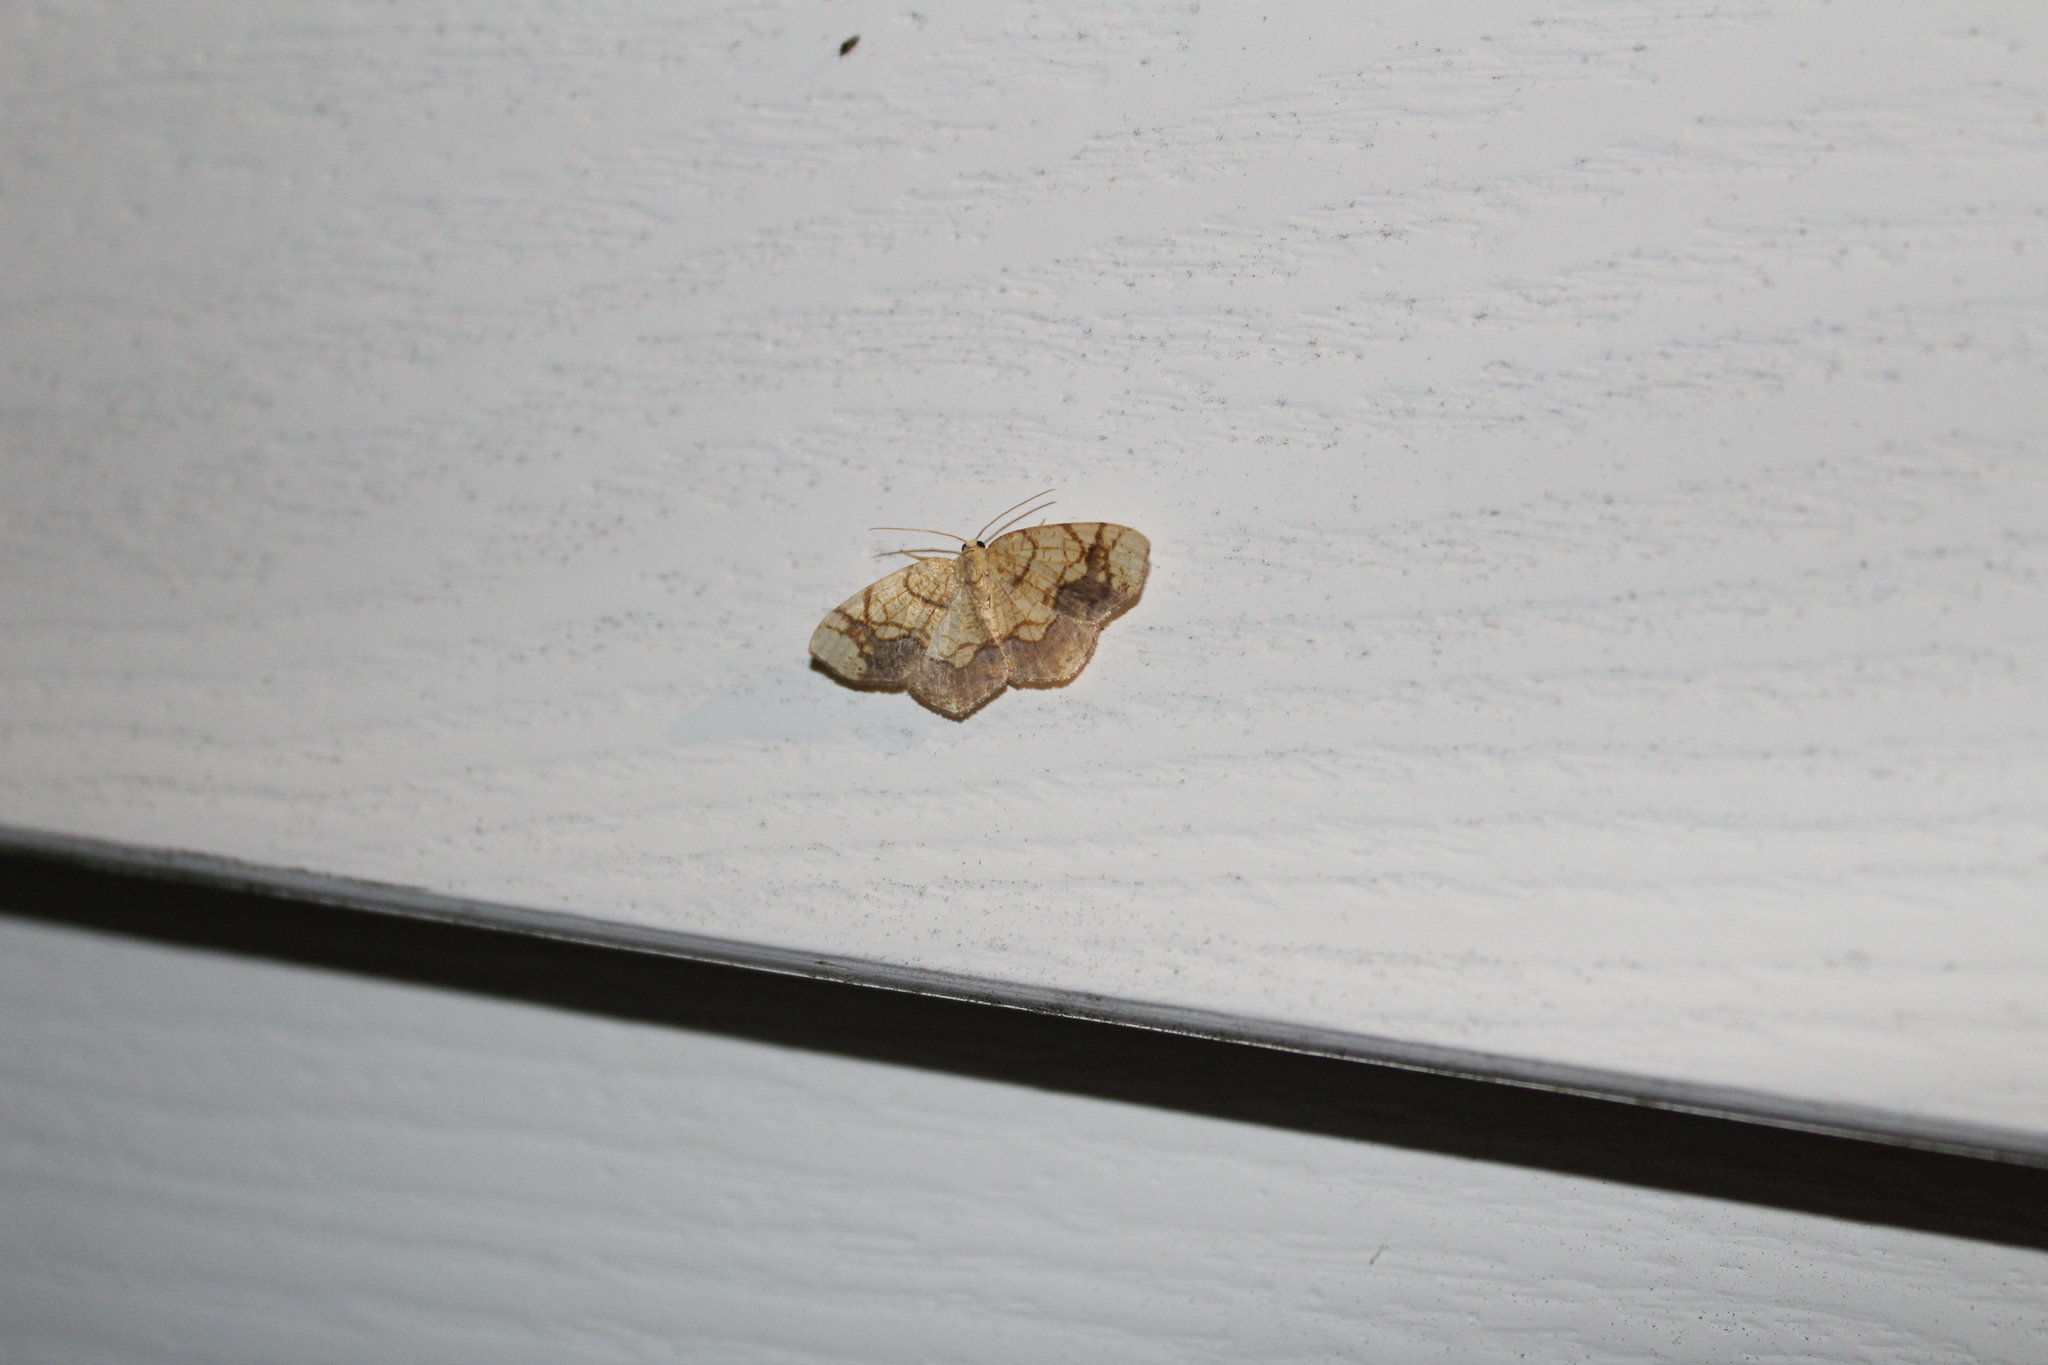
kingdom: Animalia
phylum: Arthropoda
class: Insecta
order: Lepidoptera
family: Geometridae
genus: Nematocampa
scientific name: Nematocampa resistaria
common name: Horned spanworm moth
